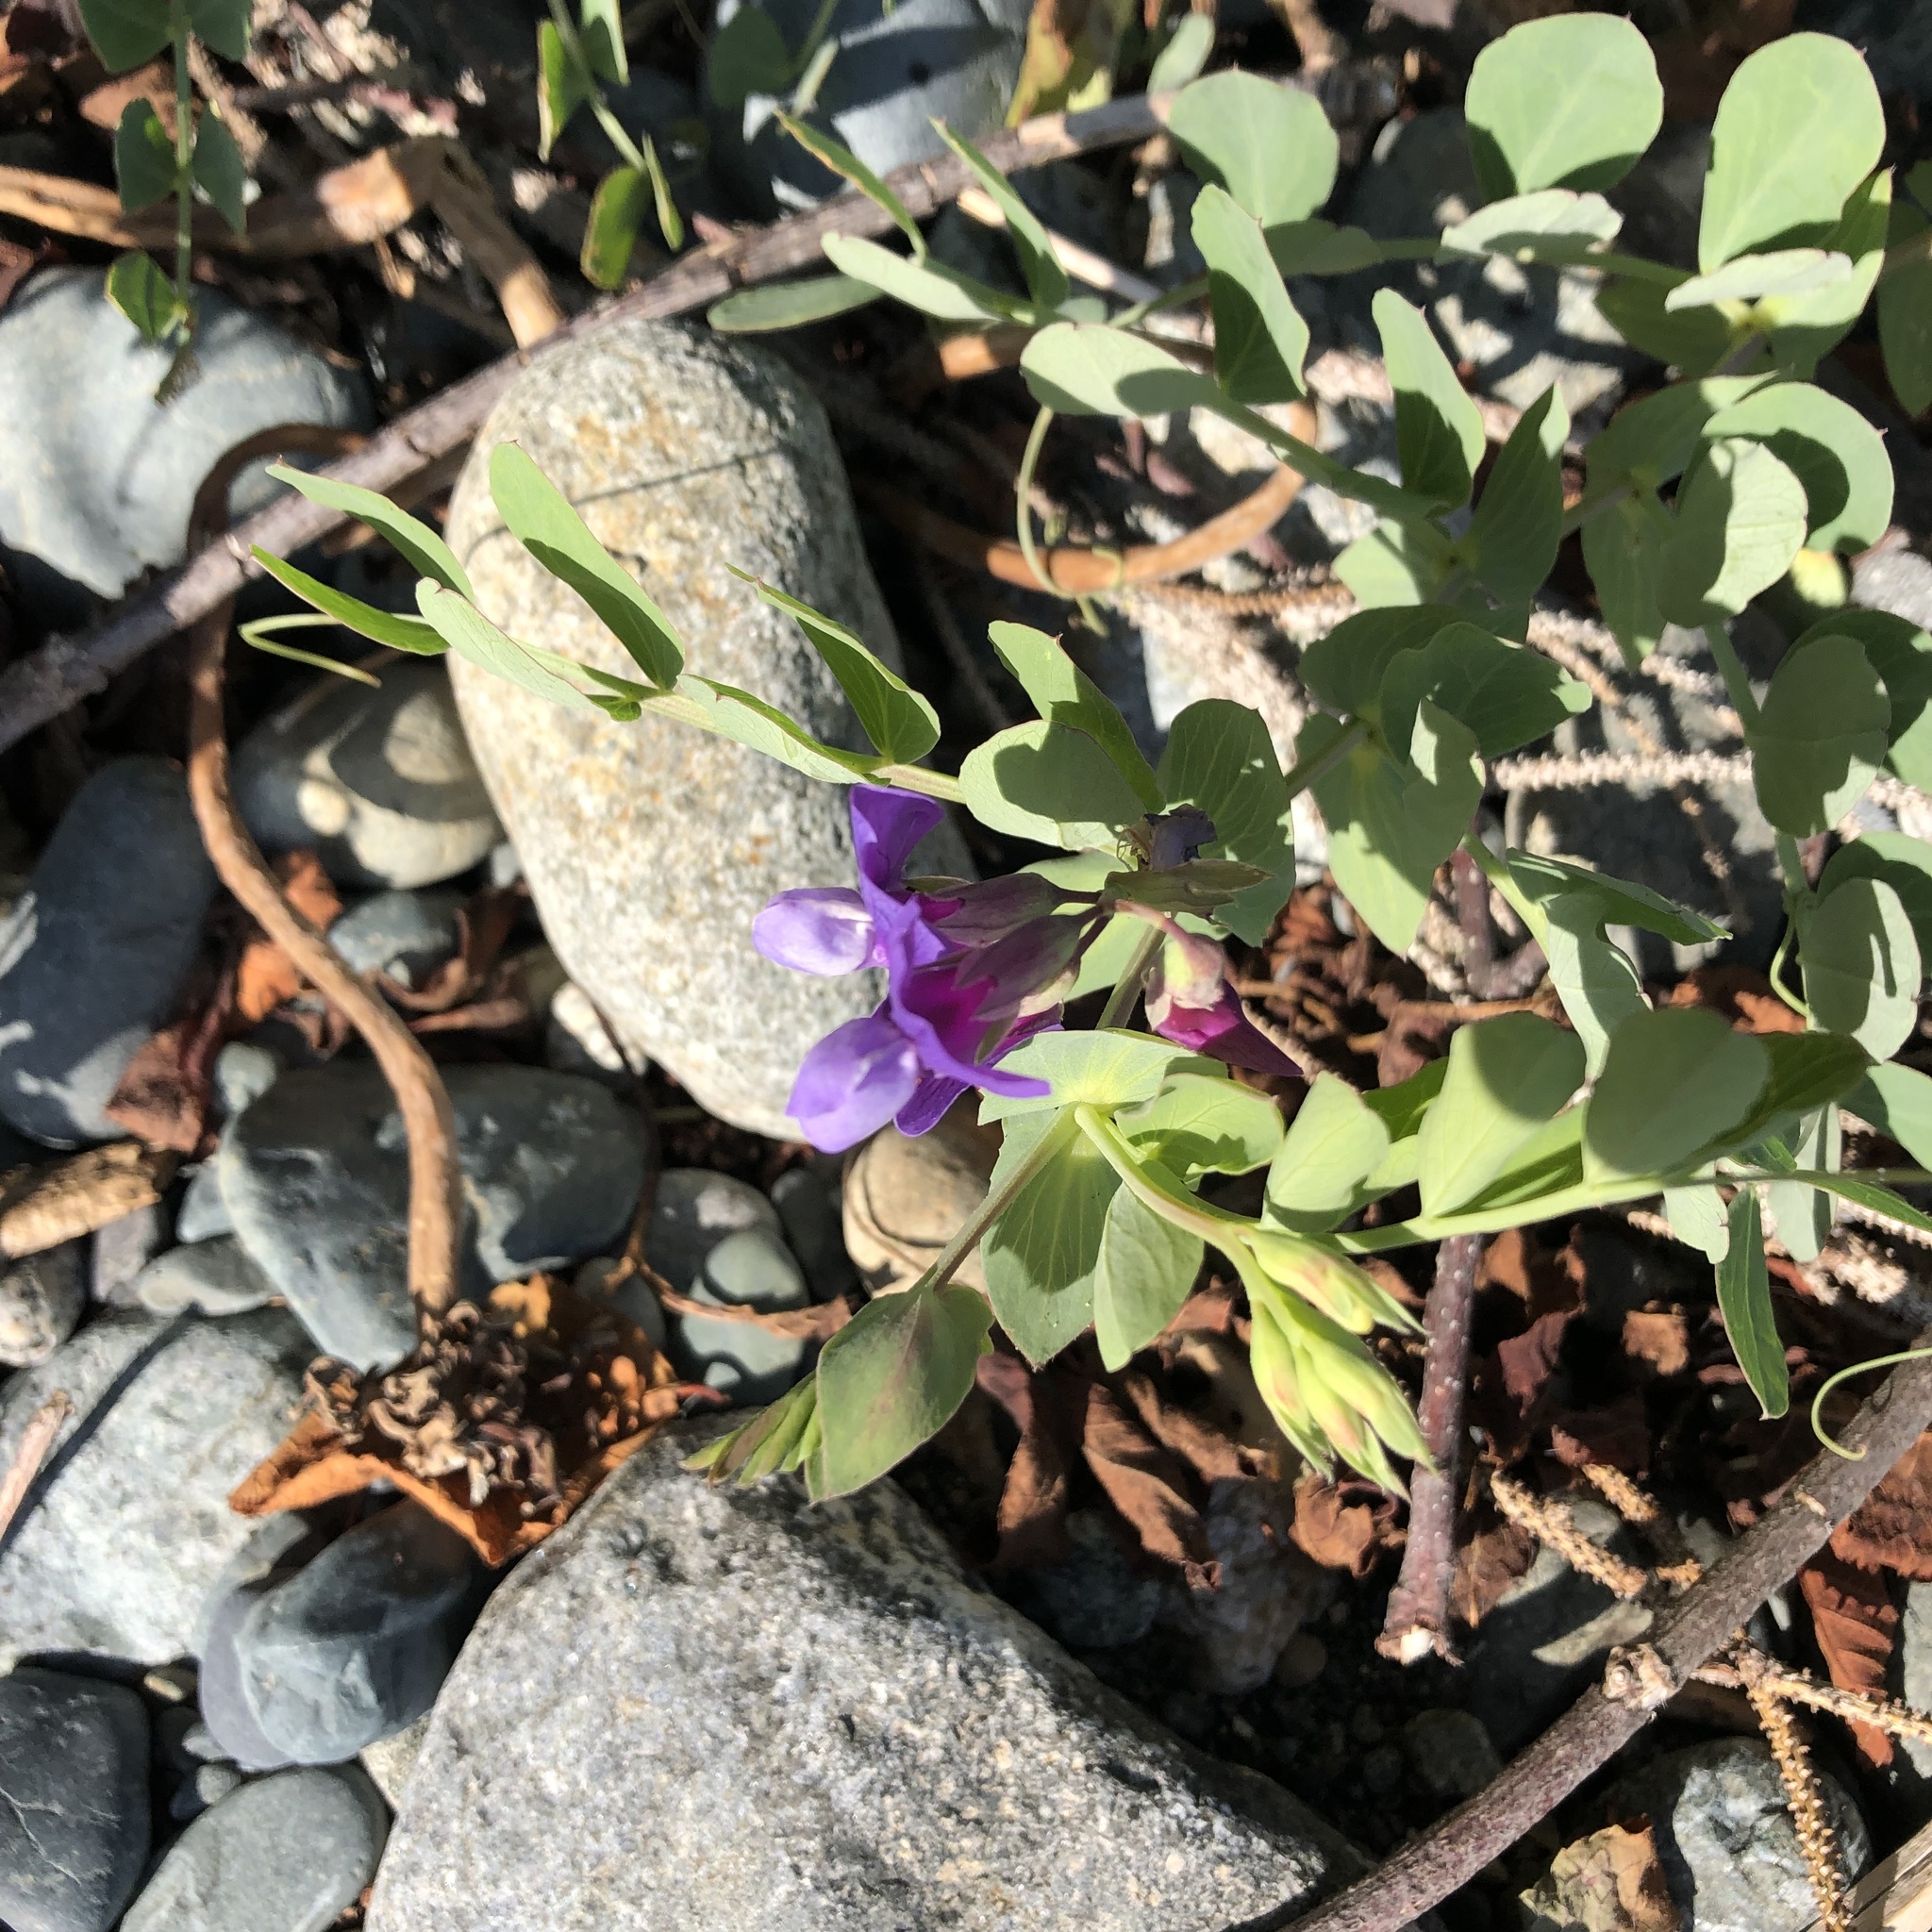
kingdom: Plantae
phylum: Tracheophyta
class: Magnoliopsida
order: Fabales
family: Fabaceae
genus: Lathyrus
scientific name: Lathyrus japonicus
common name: Sea pea
